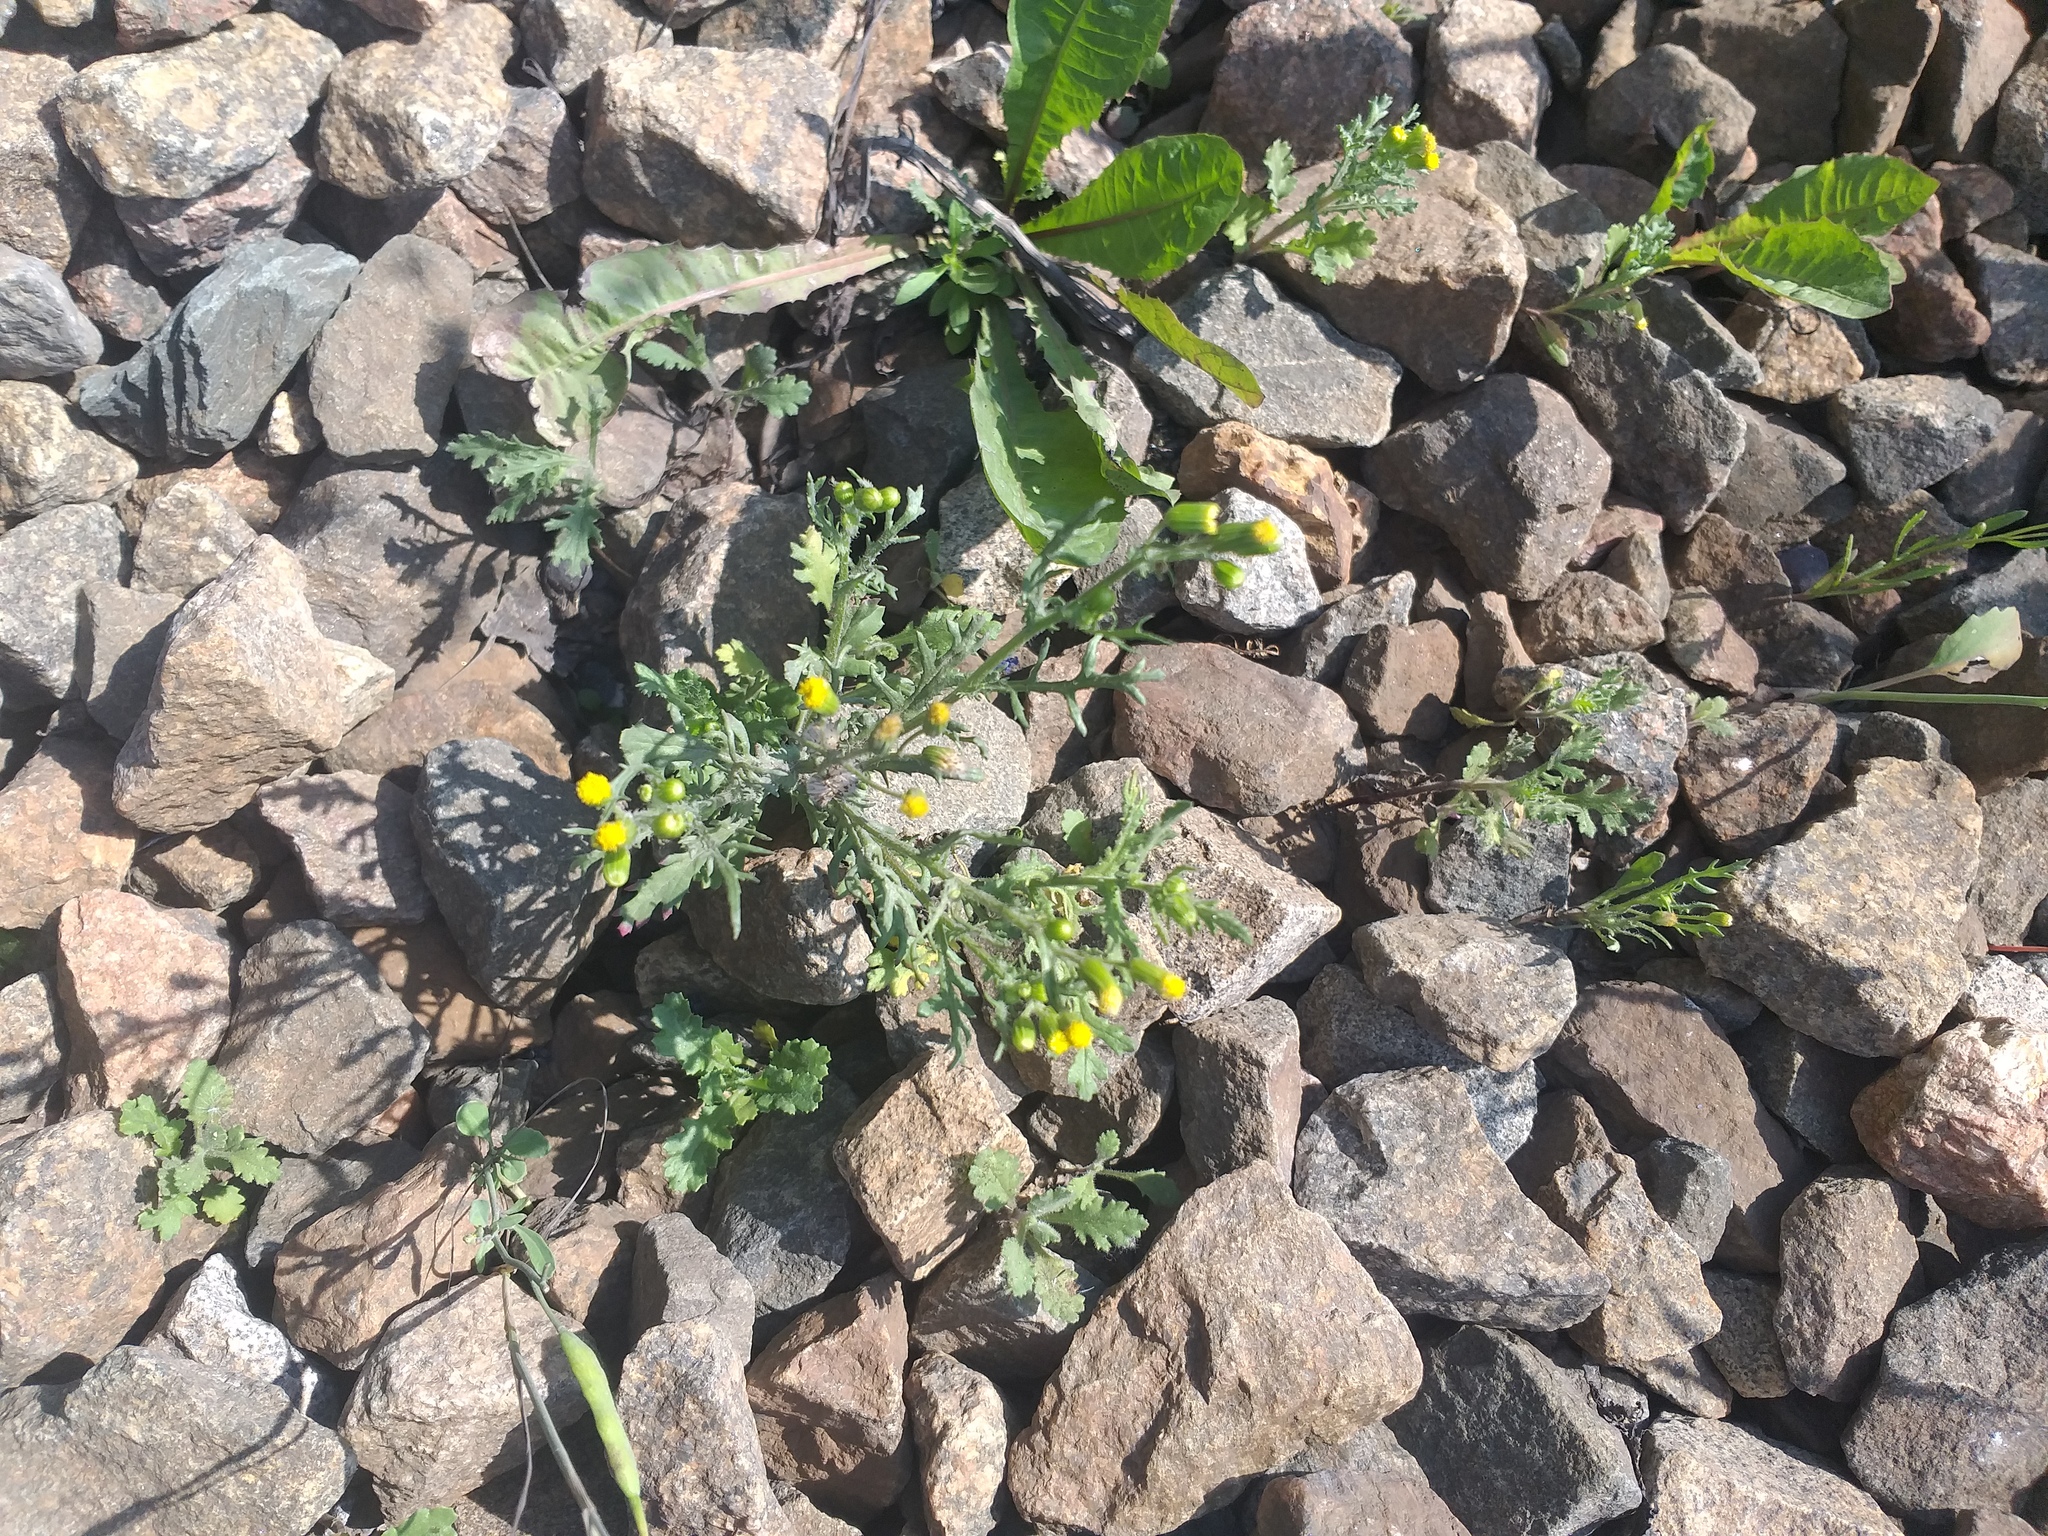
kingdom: Plantae
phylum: Tracheophyta
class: Magnoliopsida
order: Asterales
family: Asteraceae
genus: Senecio
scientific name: Senecio vulgaris
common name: Old-man-in-the-spring
